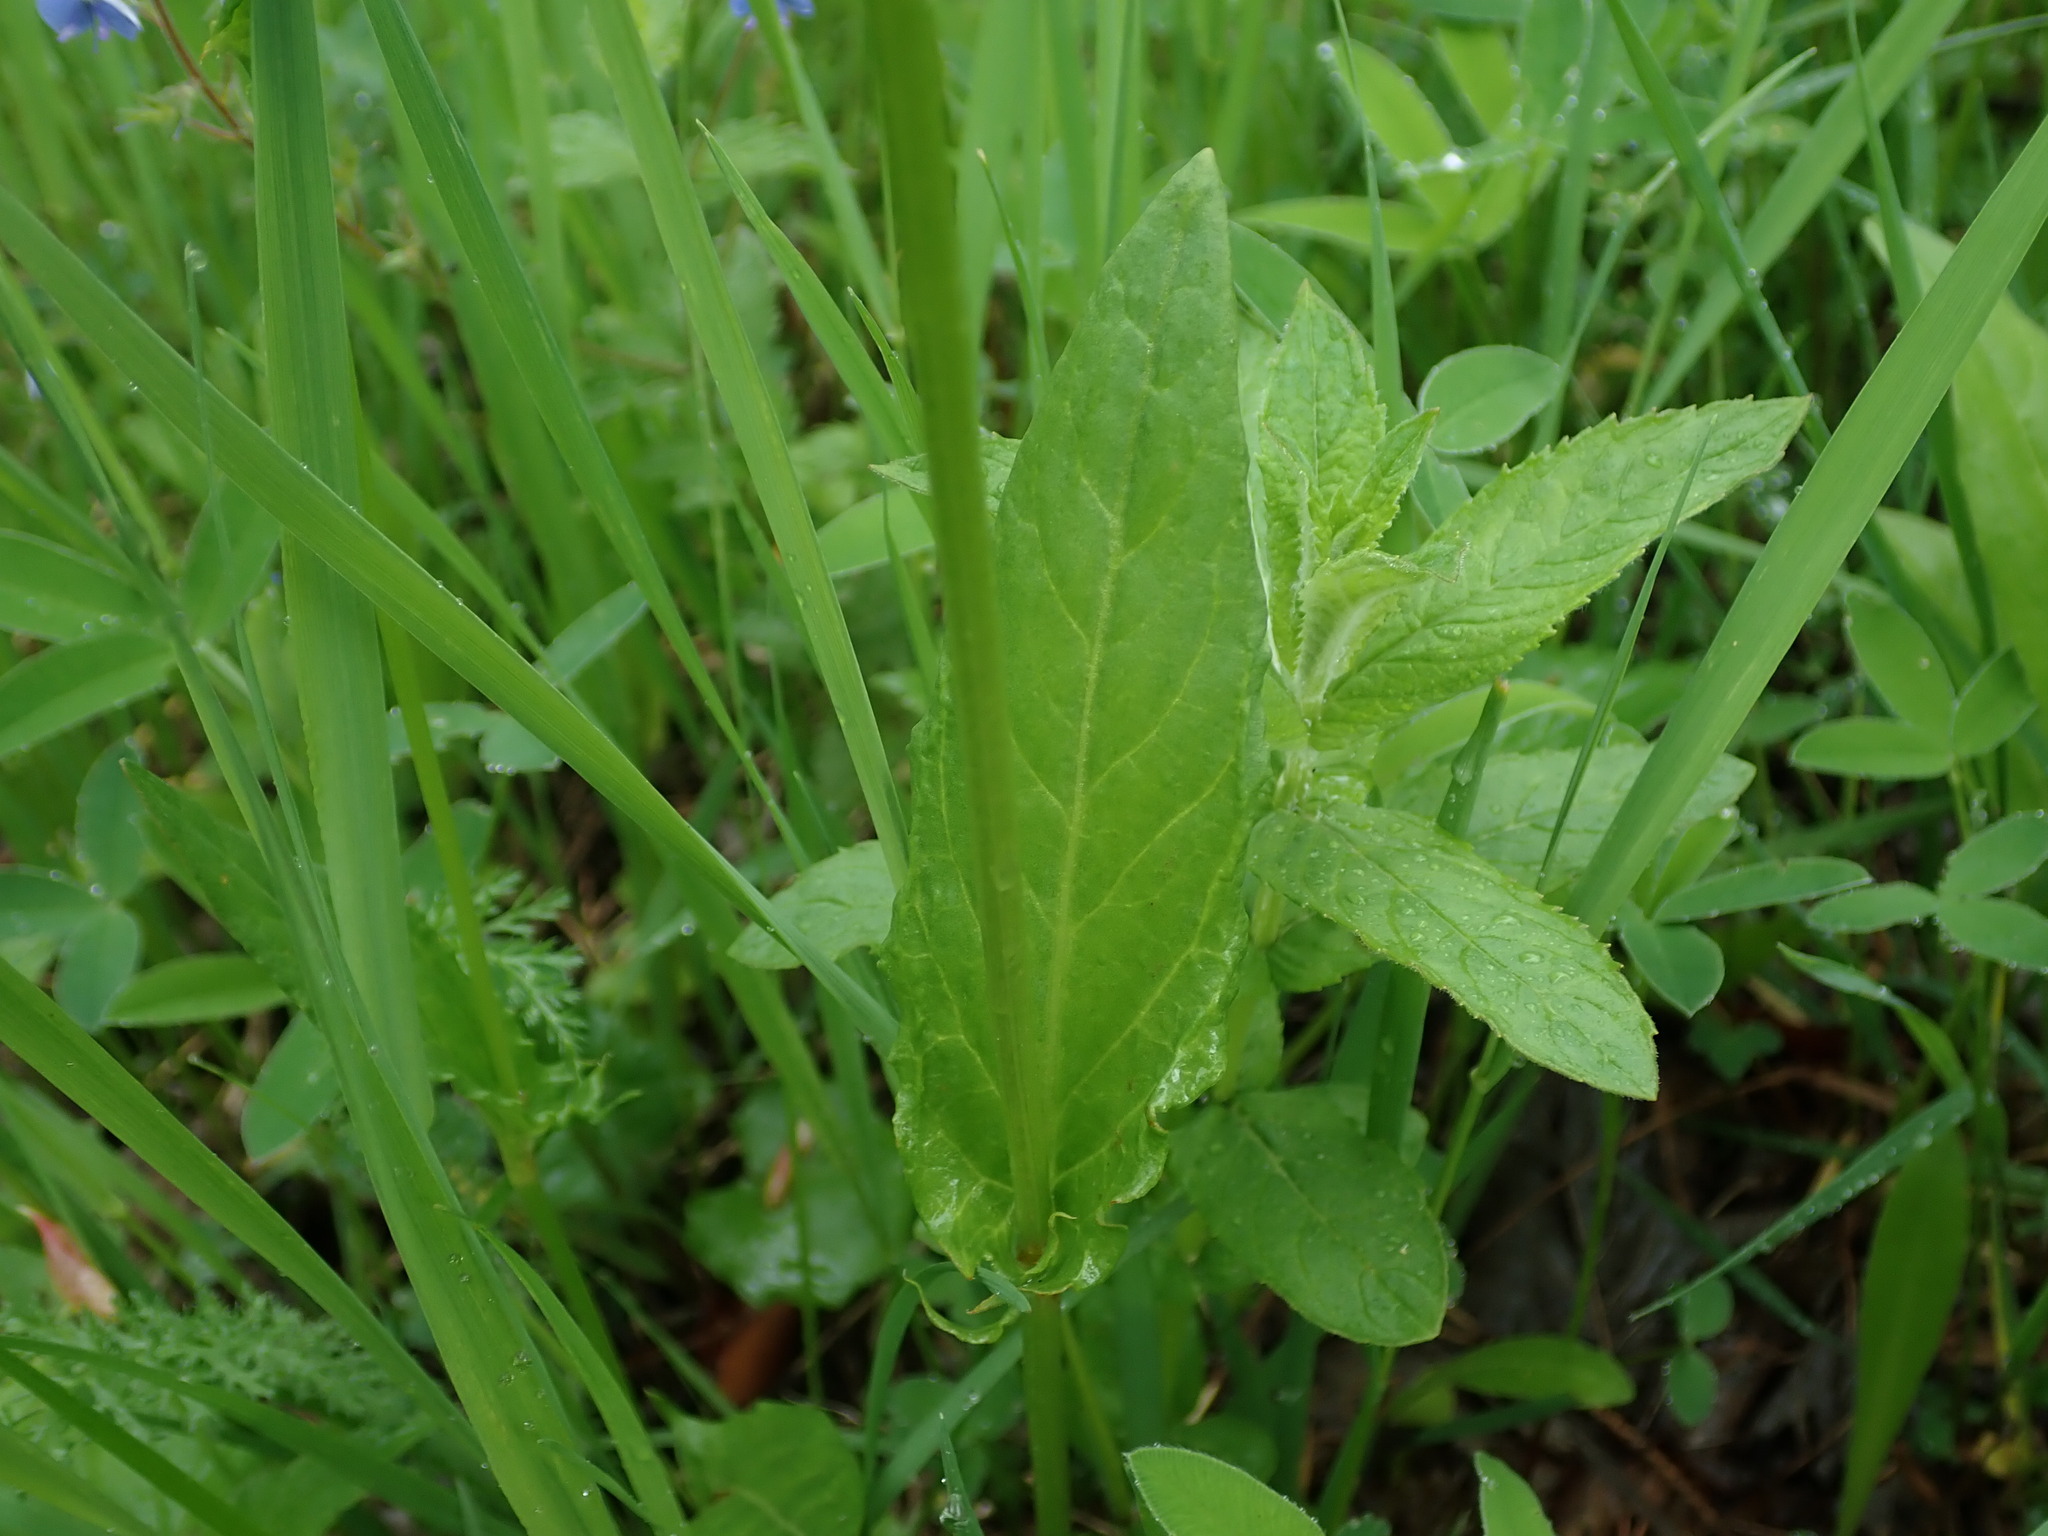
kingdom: Plantae
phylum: Tracheophyta
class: Magnoliopsida
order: Caryophyllales
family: Polygonaceae
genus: Rumex
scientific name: Rumex acetosa
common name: Garden sorrel
